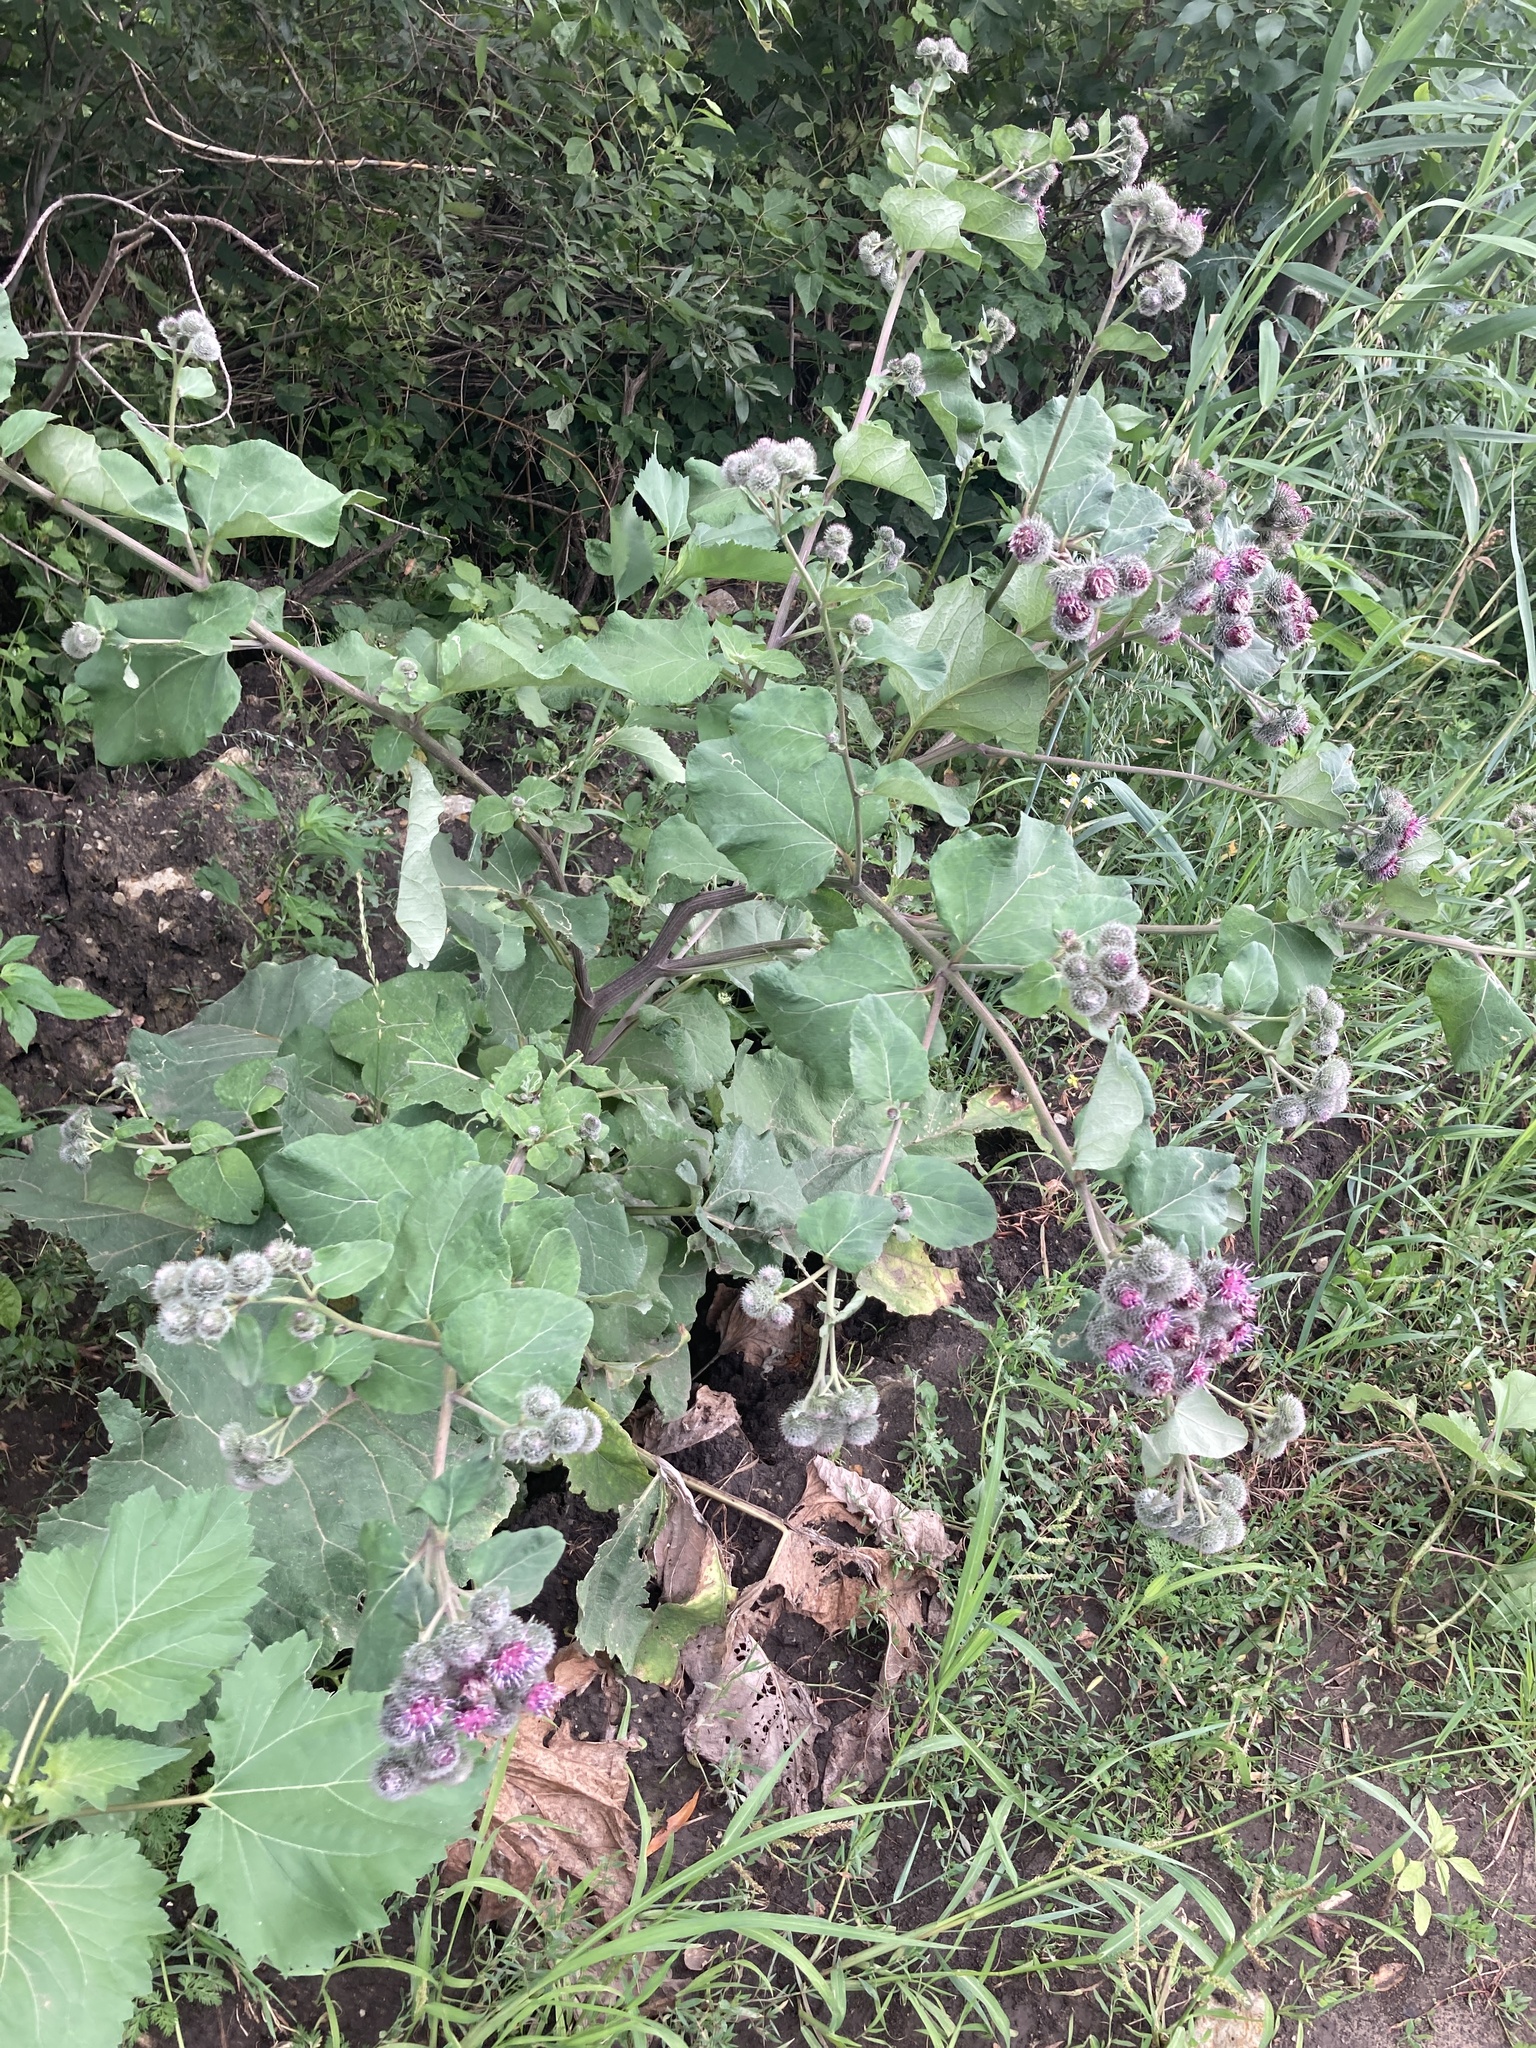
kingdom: Plantae
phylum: Tracheophyta
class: Magnoliopsida
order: Asterales
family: Asteraceae
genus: Arctium
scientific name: Arctium tomentosum
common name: Woolly burdock
